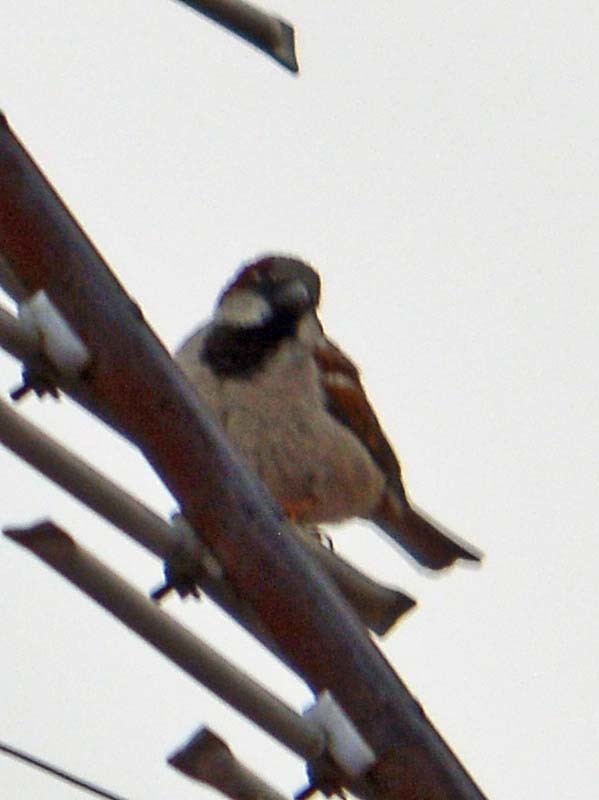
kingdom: Animalia
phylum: Chordata
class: Aves
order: Passeriformes
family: Passeridae
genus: Passer
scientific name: Passer domesticus
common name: House sparrow
